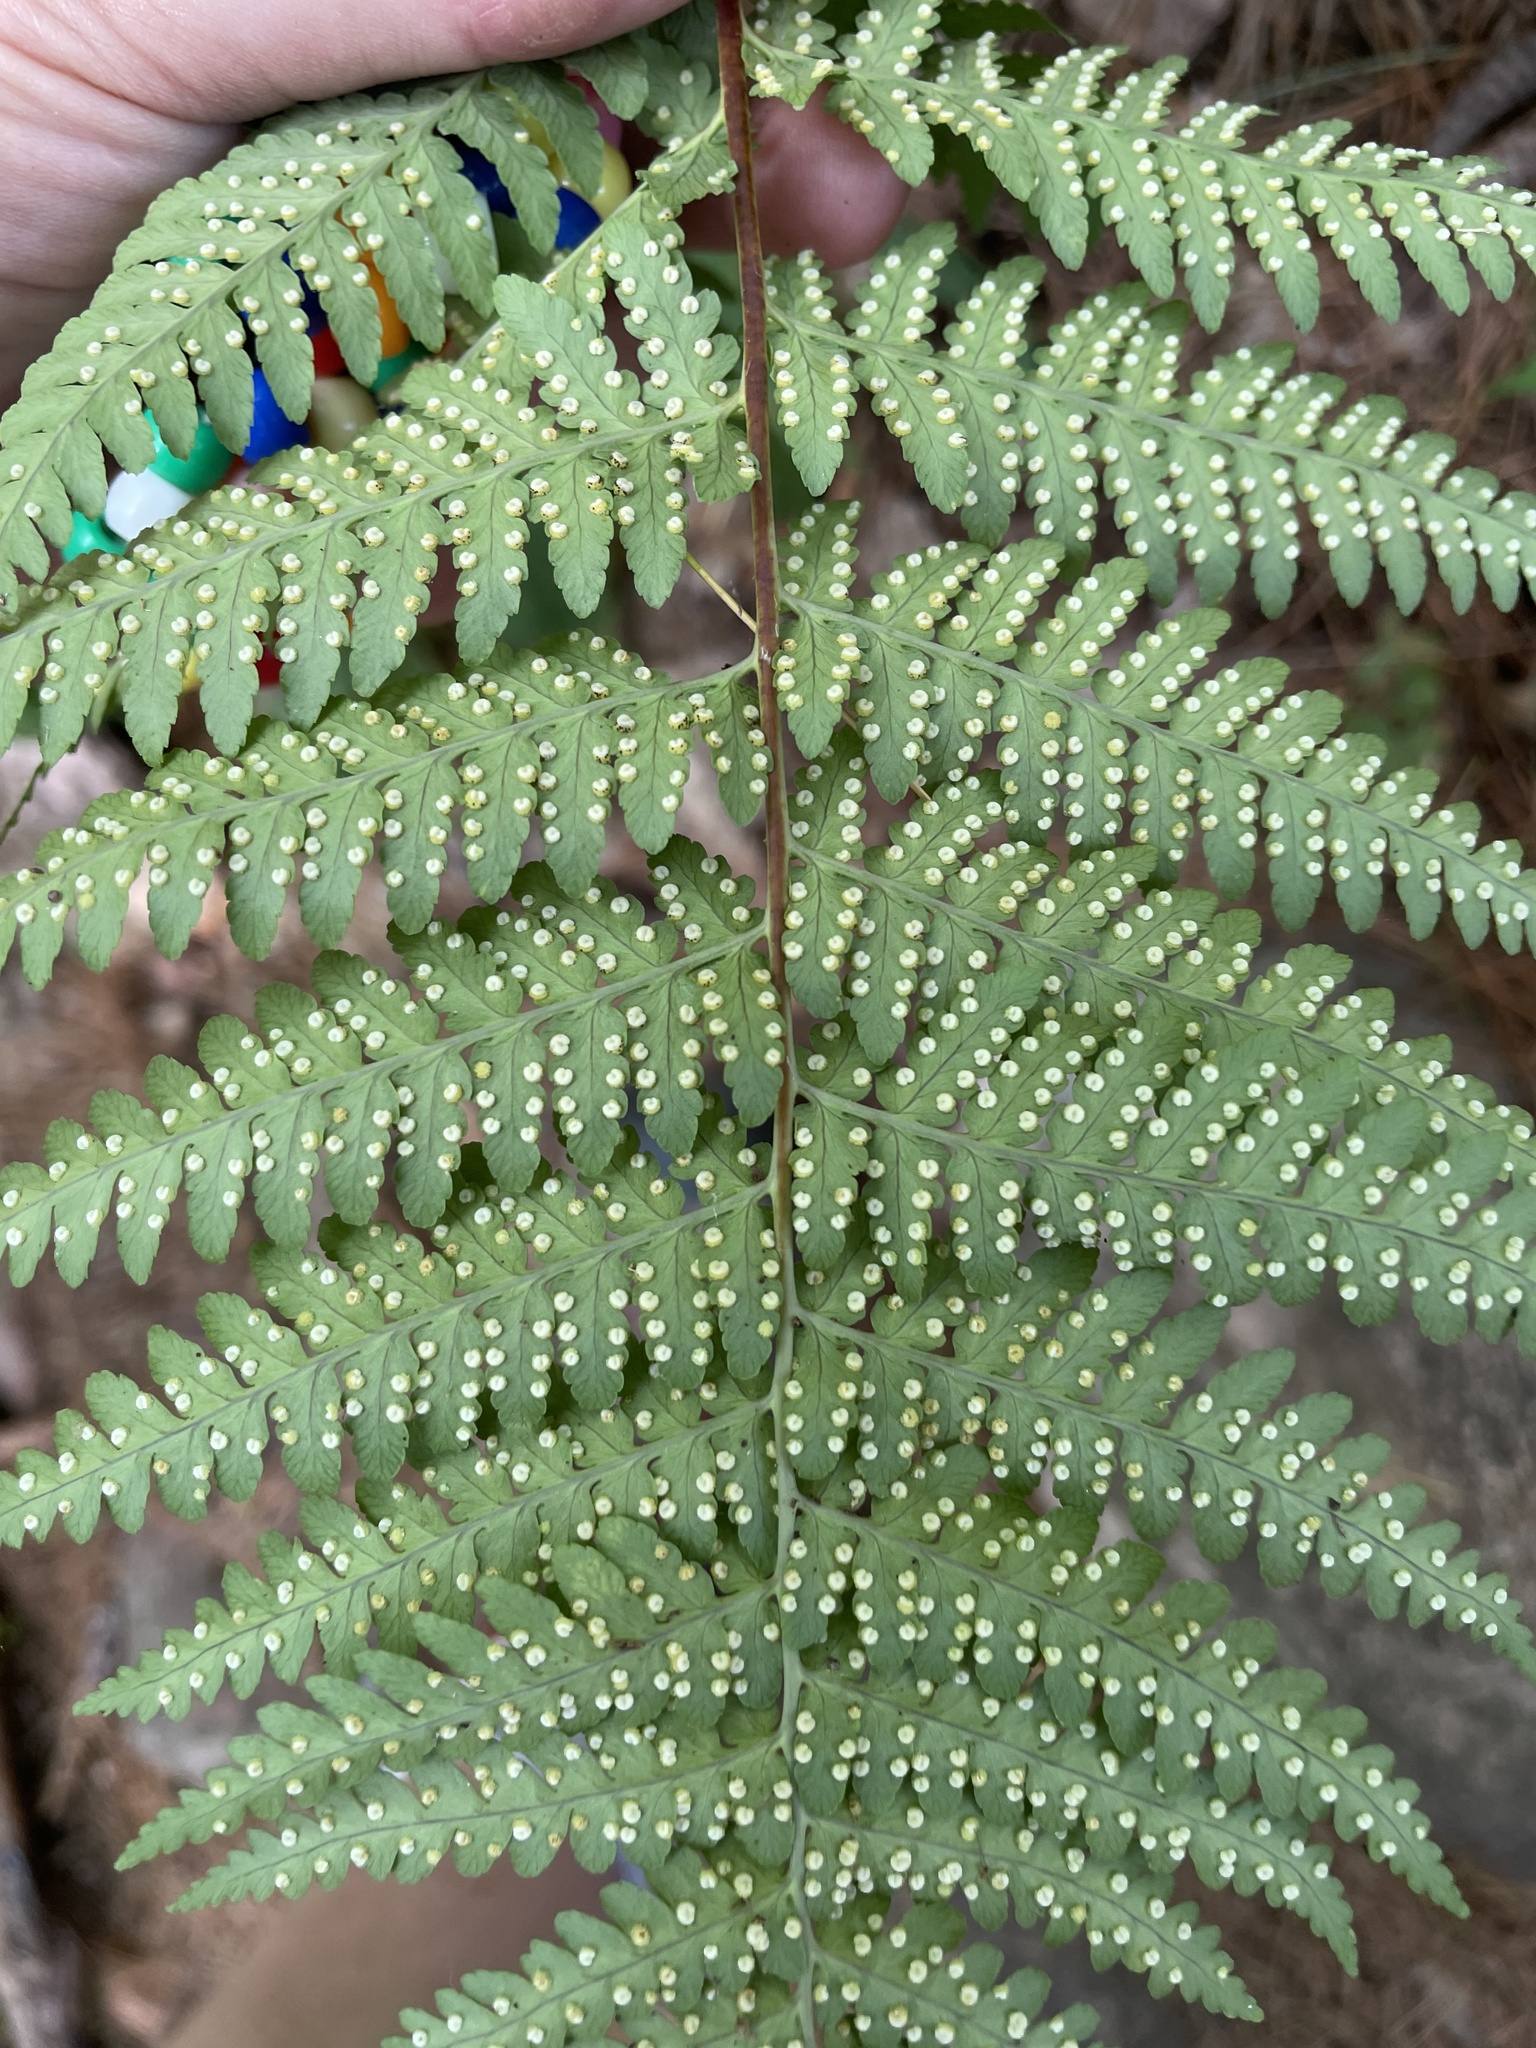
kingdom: Plantae
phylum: Tracheophyta
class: Polypodiopsida
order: Polypodiales
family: Dryopteridaceae
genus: Dryopteris
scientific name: Dryopteris marginalis
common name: Marginal wood fern
